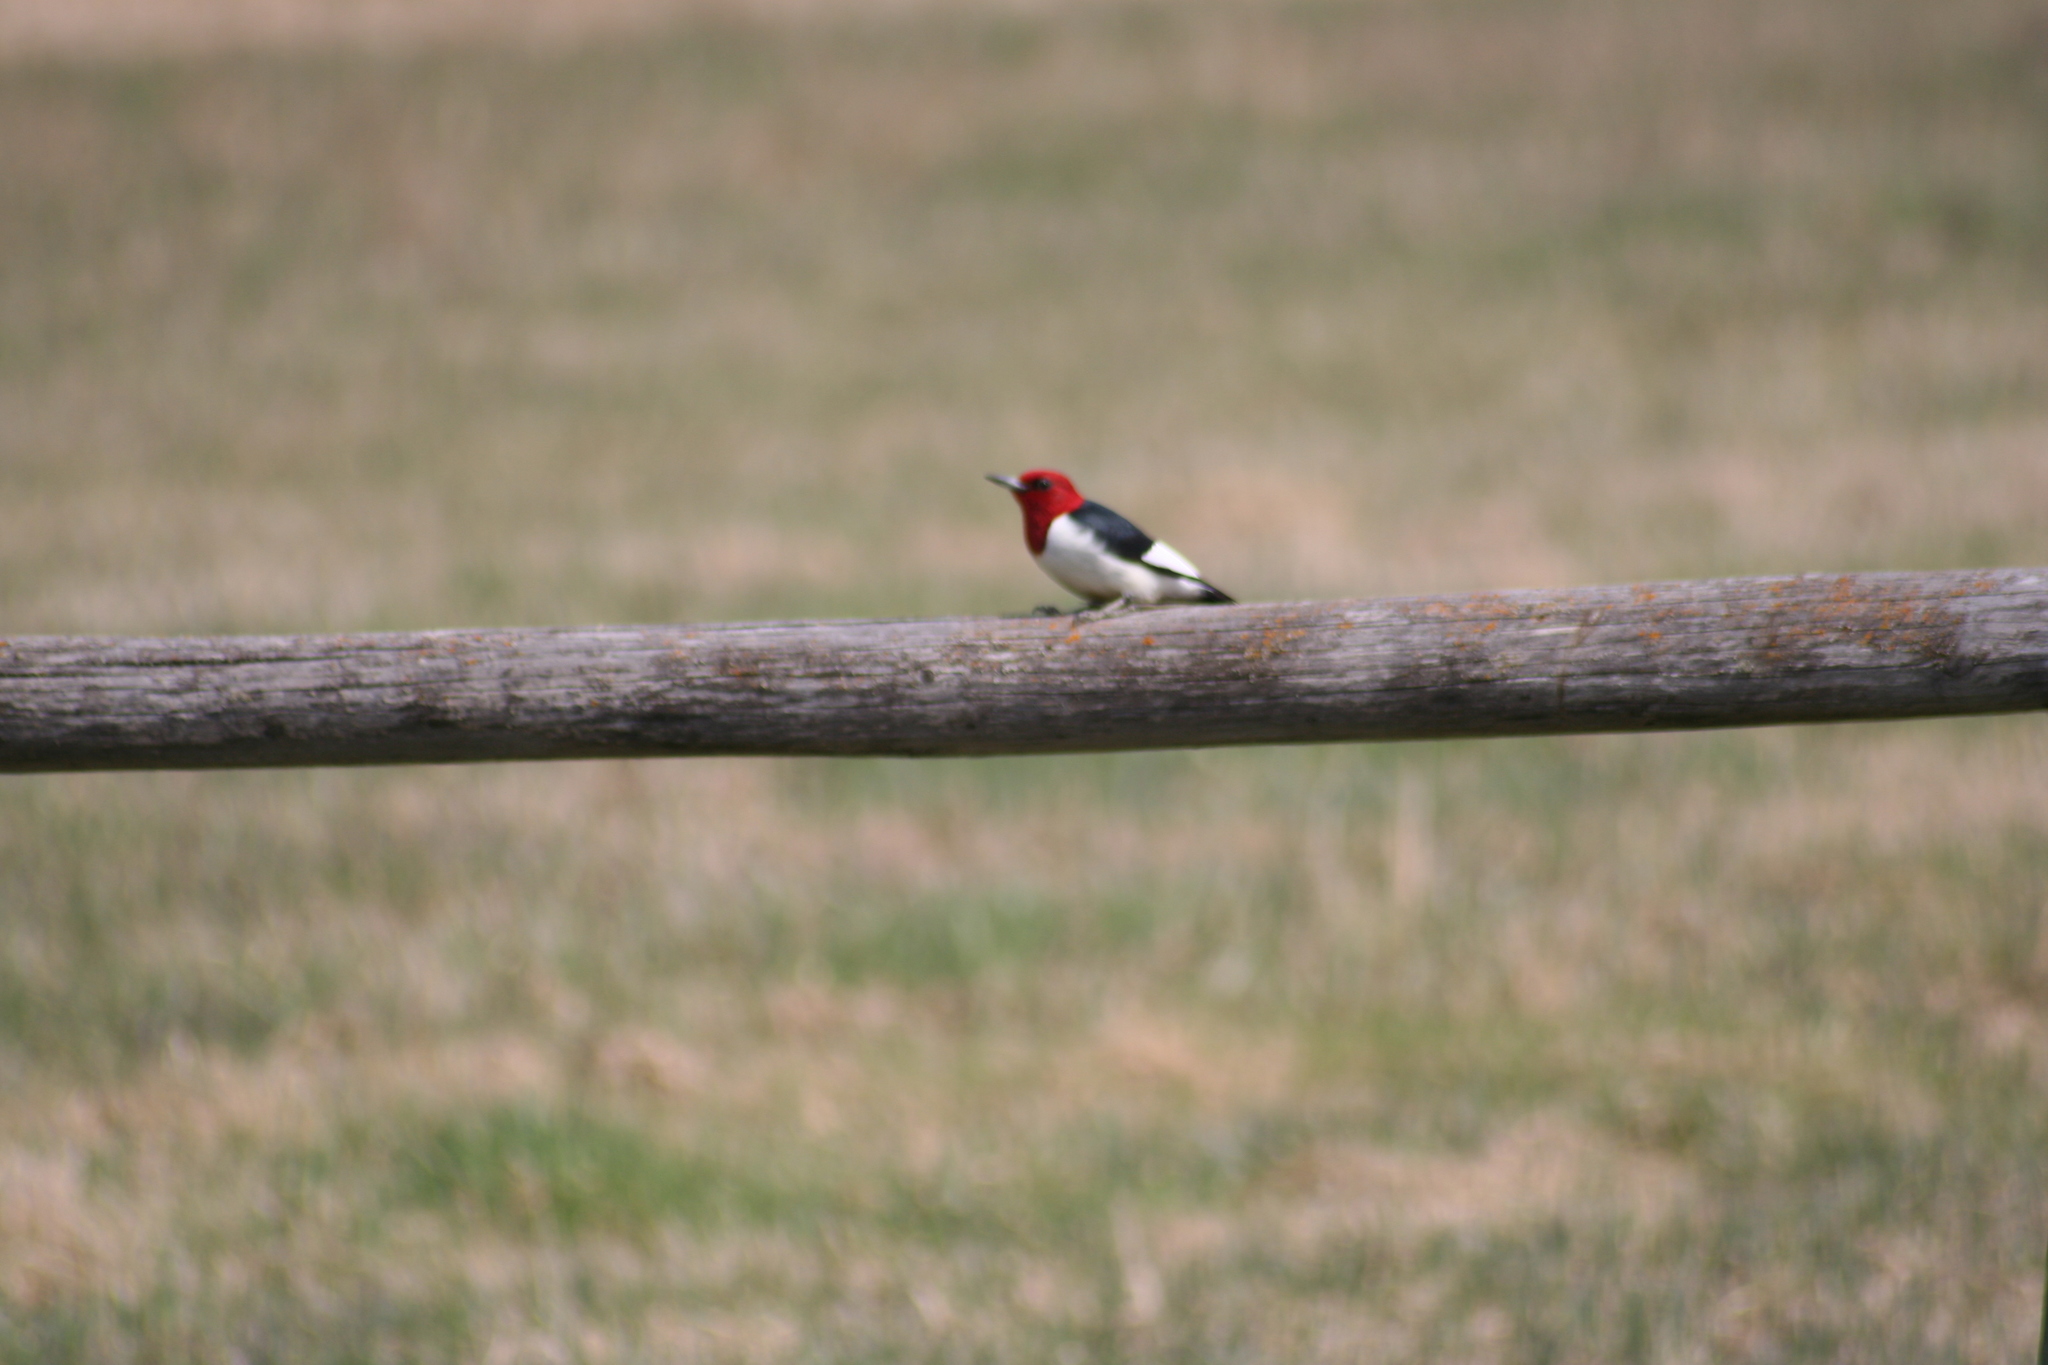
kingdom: Animalia
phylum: Chordata
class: Aves
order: Piciformes
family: Picidae
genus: Melanerpes
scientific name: Melanerpes erythrocephalus
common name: Red-headed woodpecker
